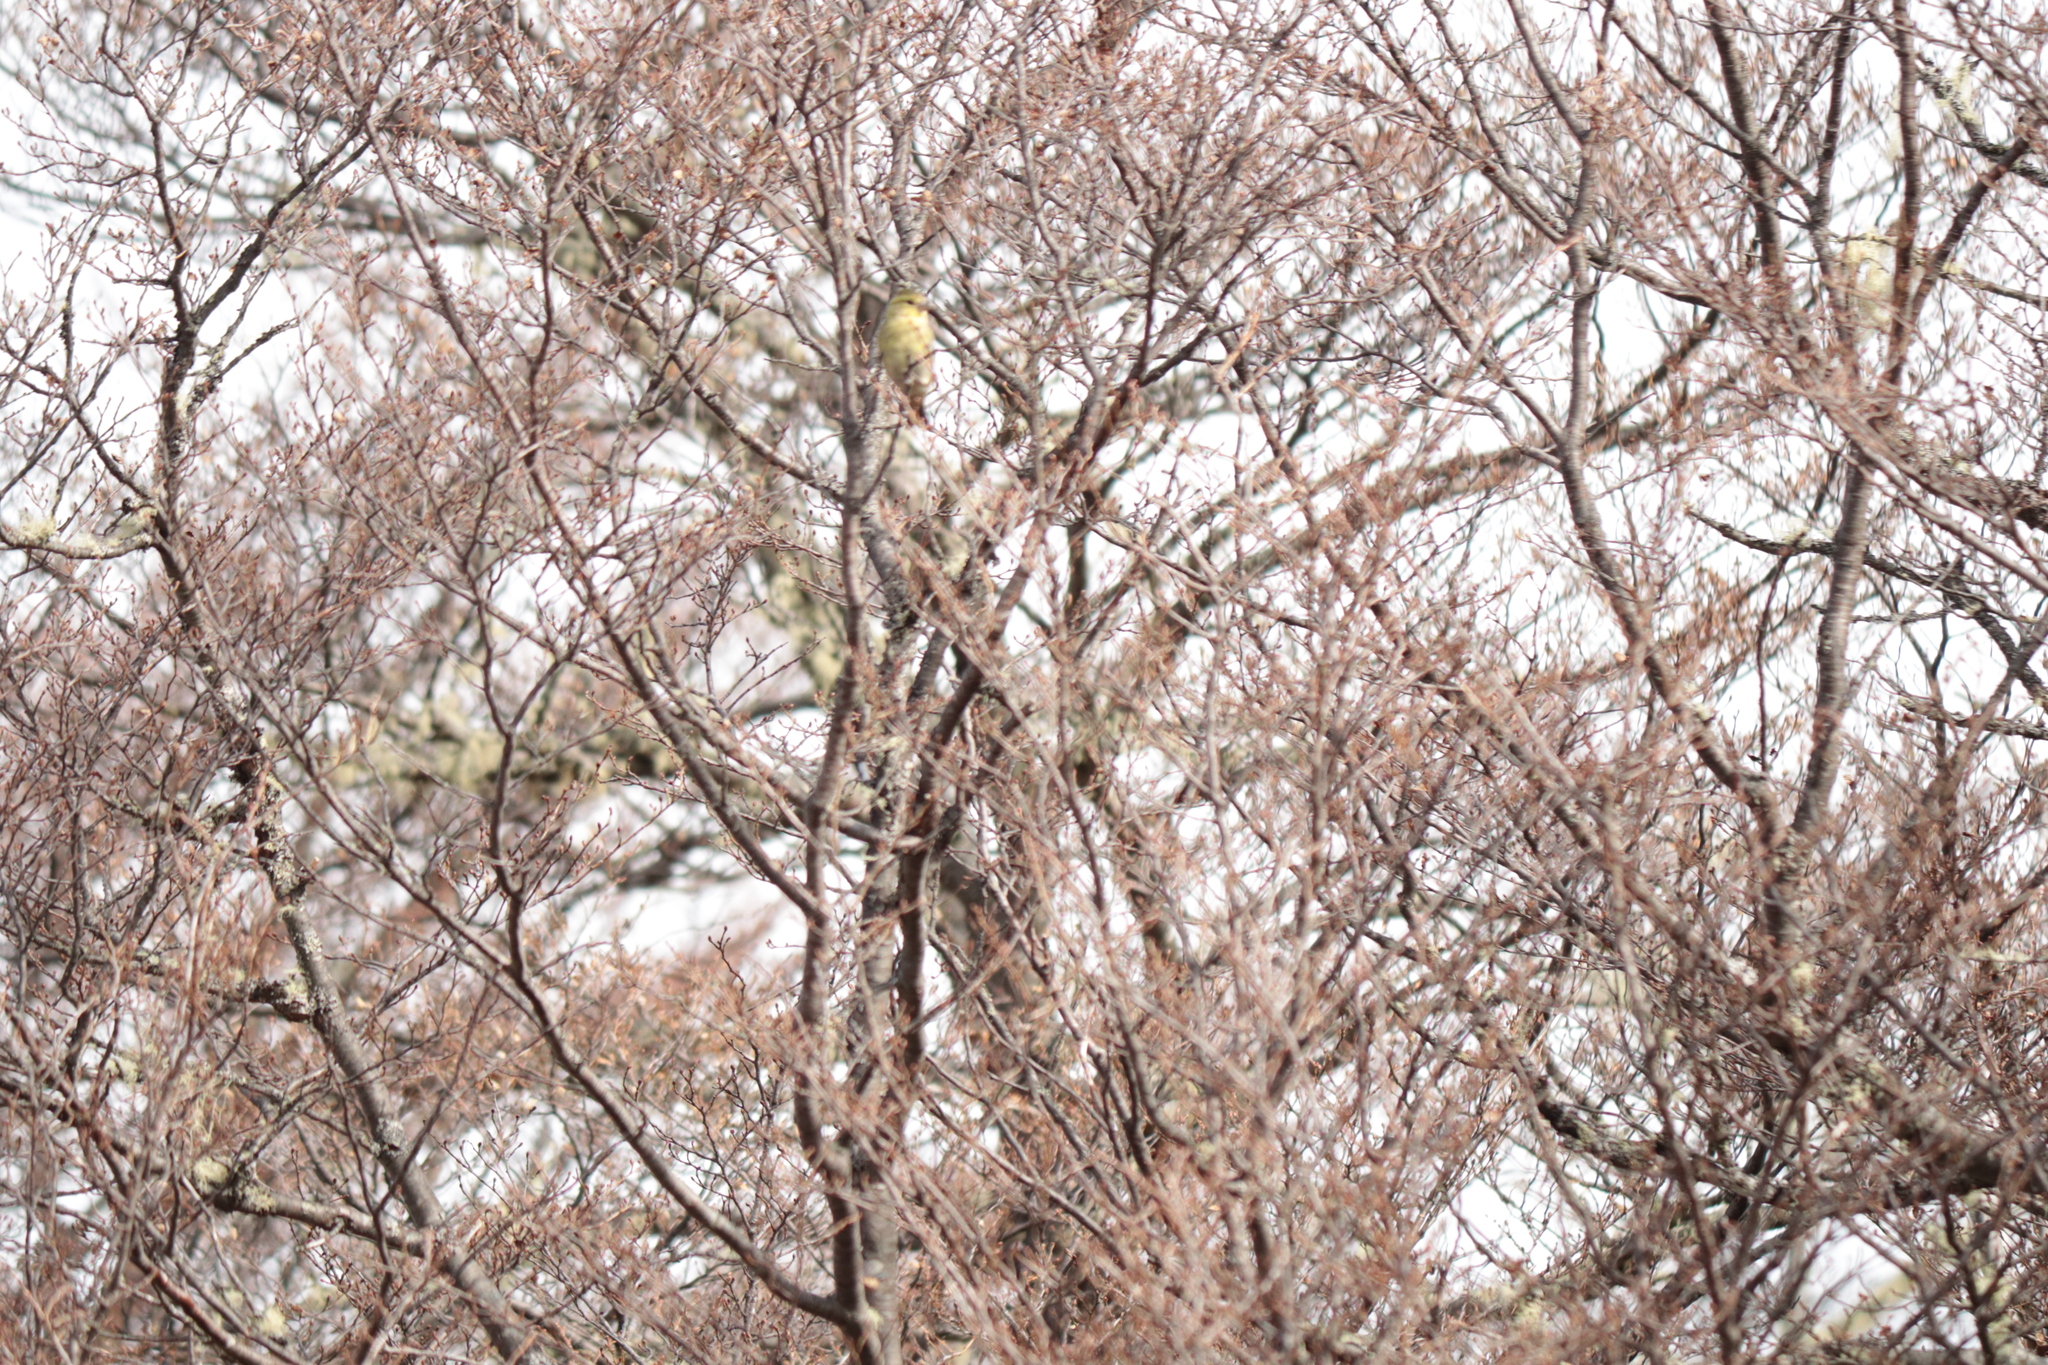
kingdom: Animalia
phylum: Chordata
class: Aves
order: Passeriformes
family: Fringillidae
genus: Spinus
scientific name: Spinus barbatus
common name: Black-chinned siskin
